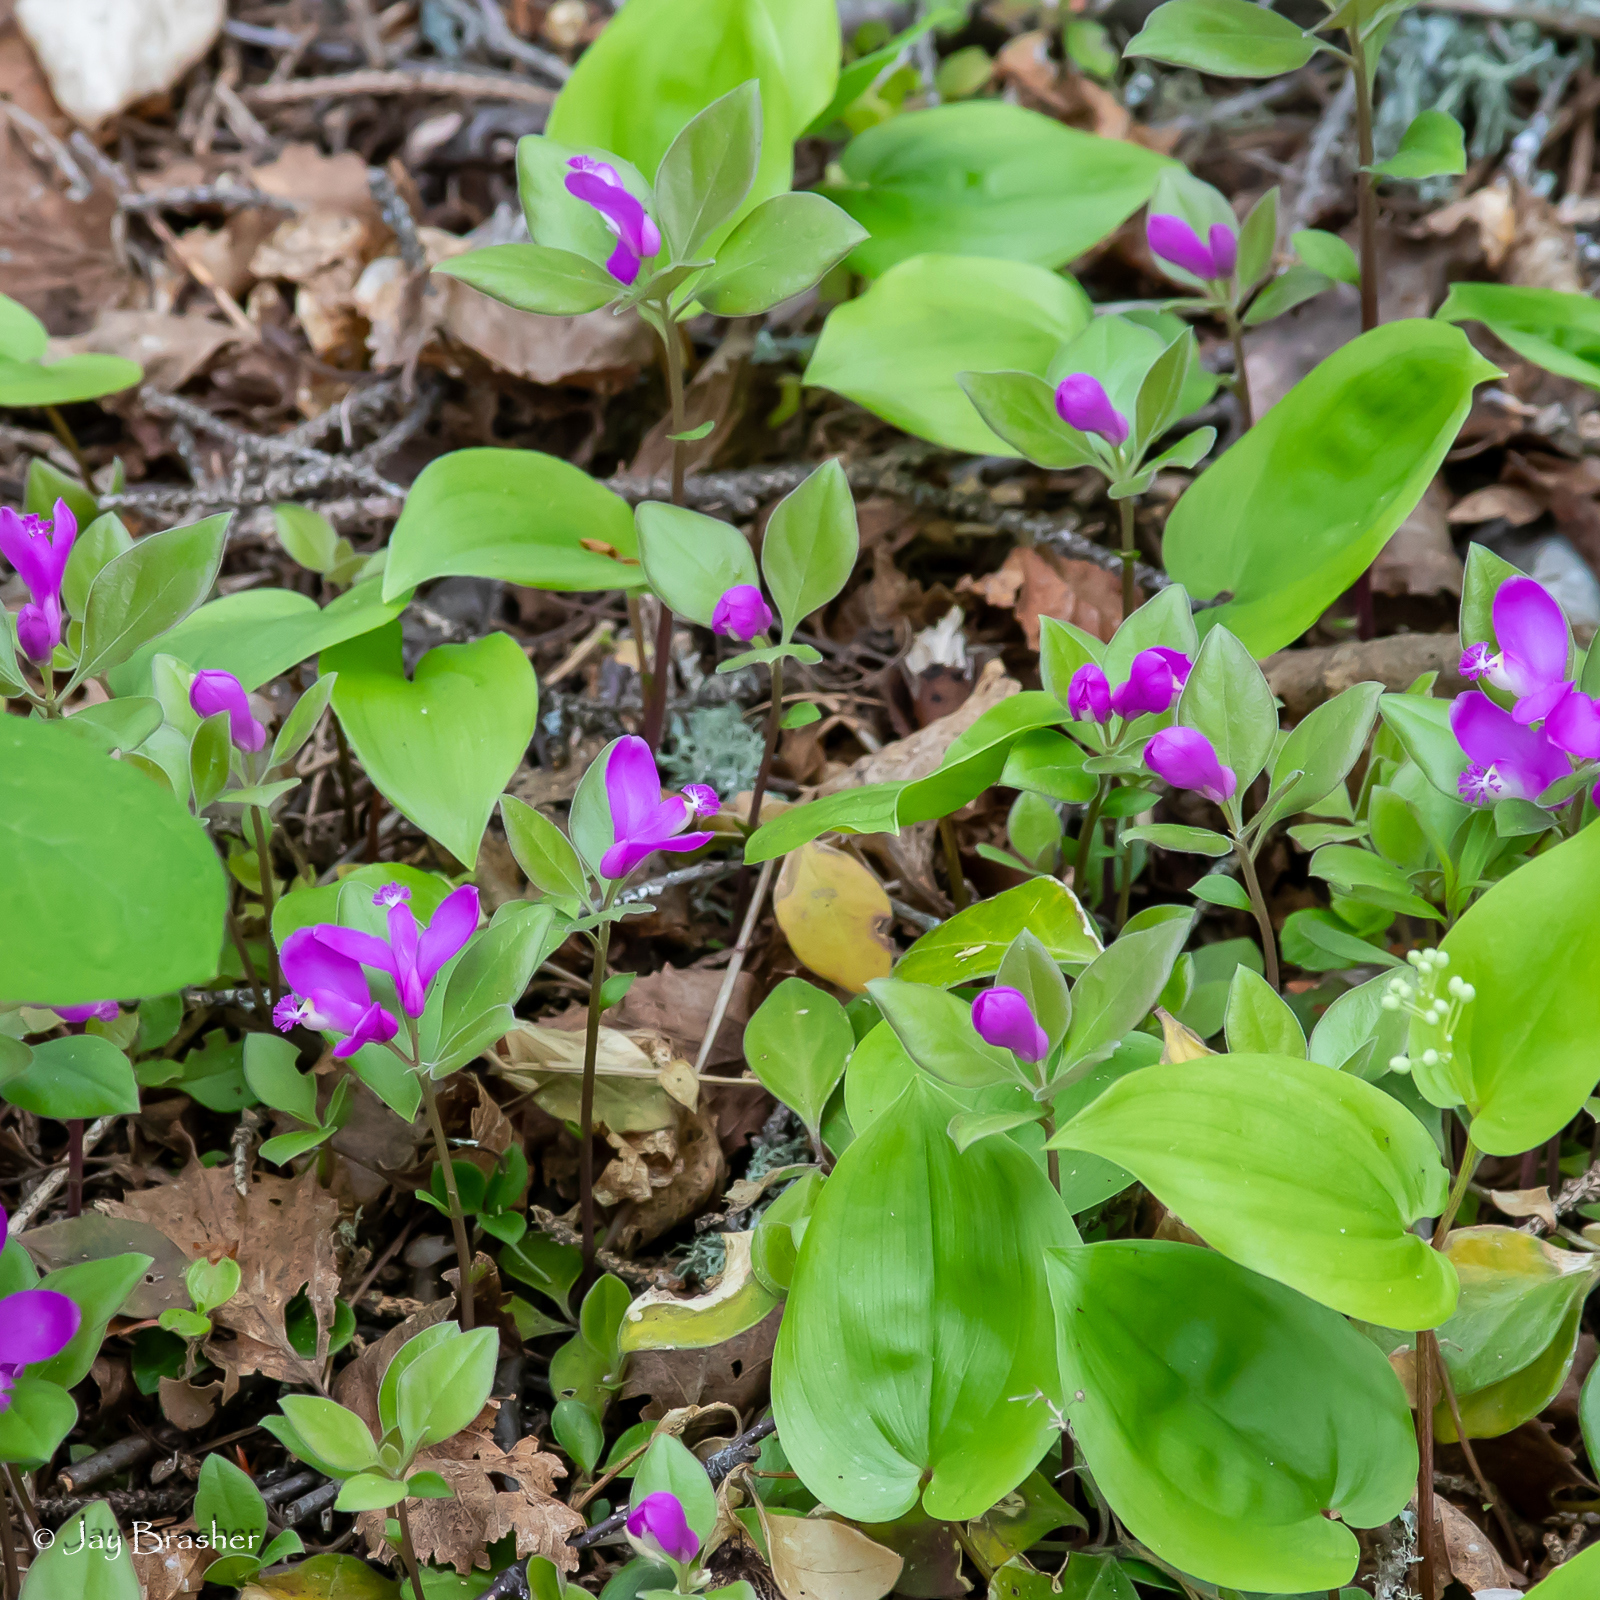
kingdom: Plantae
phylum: Tracheophyta
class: Magnoliopsida
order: Fabales
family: Polygalaceae
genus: Polygaloides
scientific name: Polygaloides paucifolia
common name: Bird-on-the-wing
